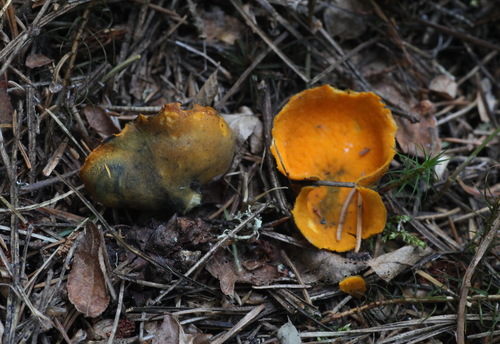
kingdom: Fungi
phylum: Ascomycota
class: Pezizomycetes
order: Pezizales
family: Caloscyphaceae
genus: Caloscypha
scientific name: Caloscypha fulgens
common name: Golden cup
